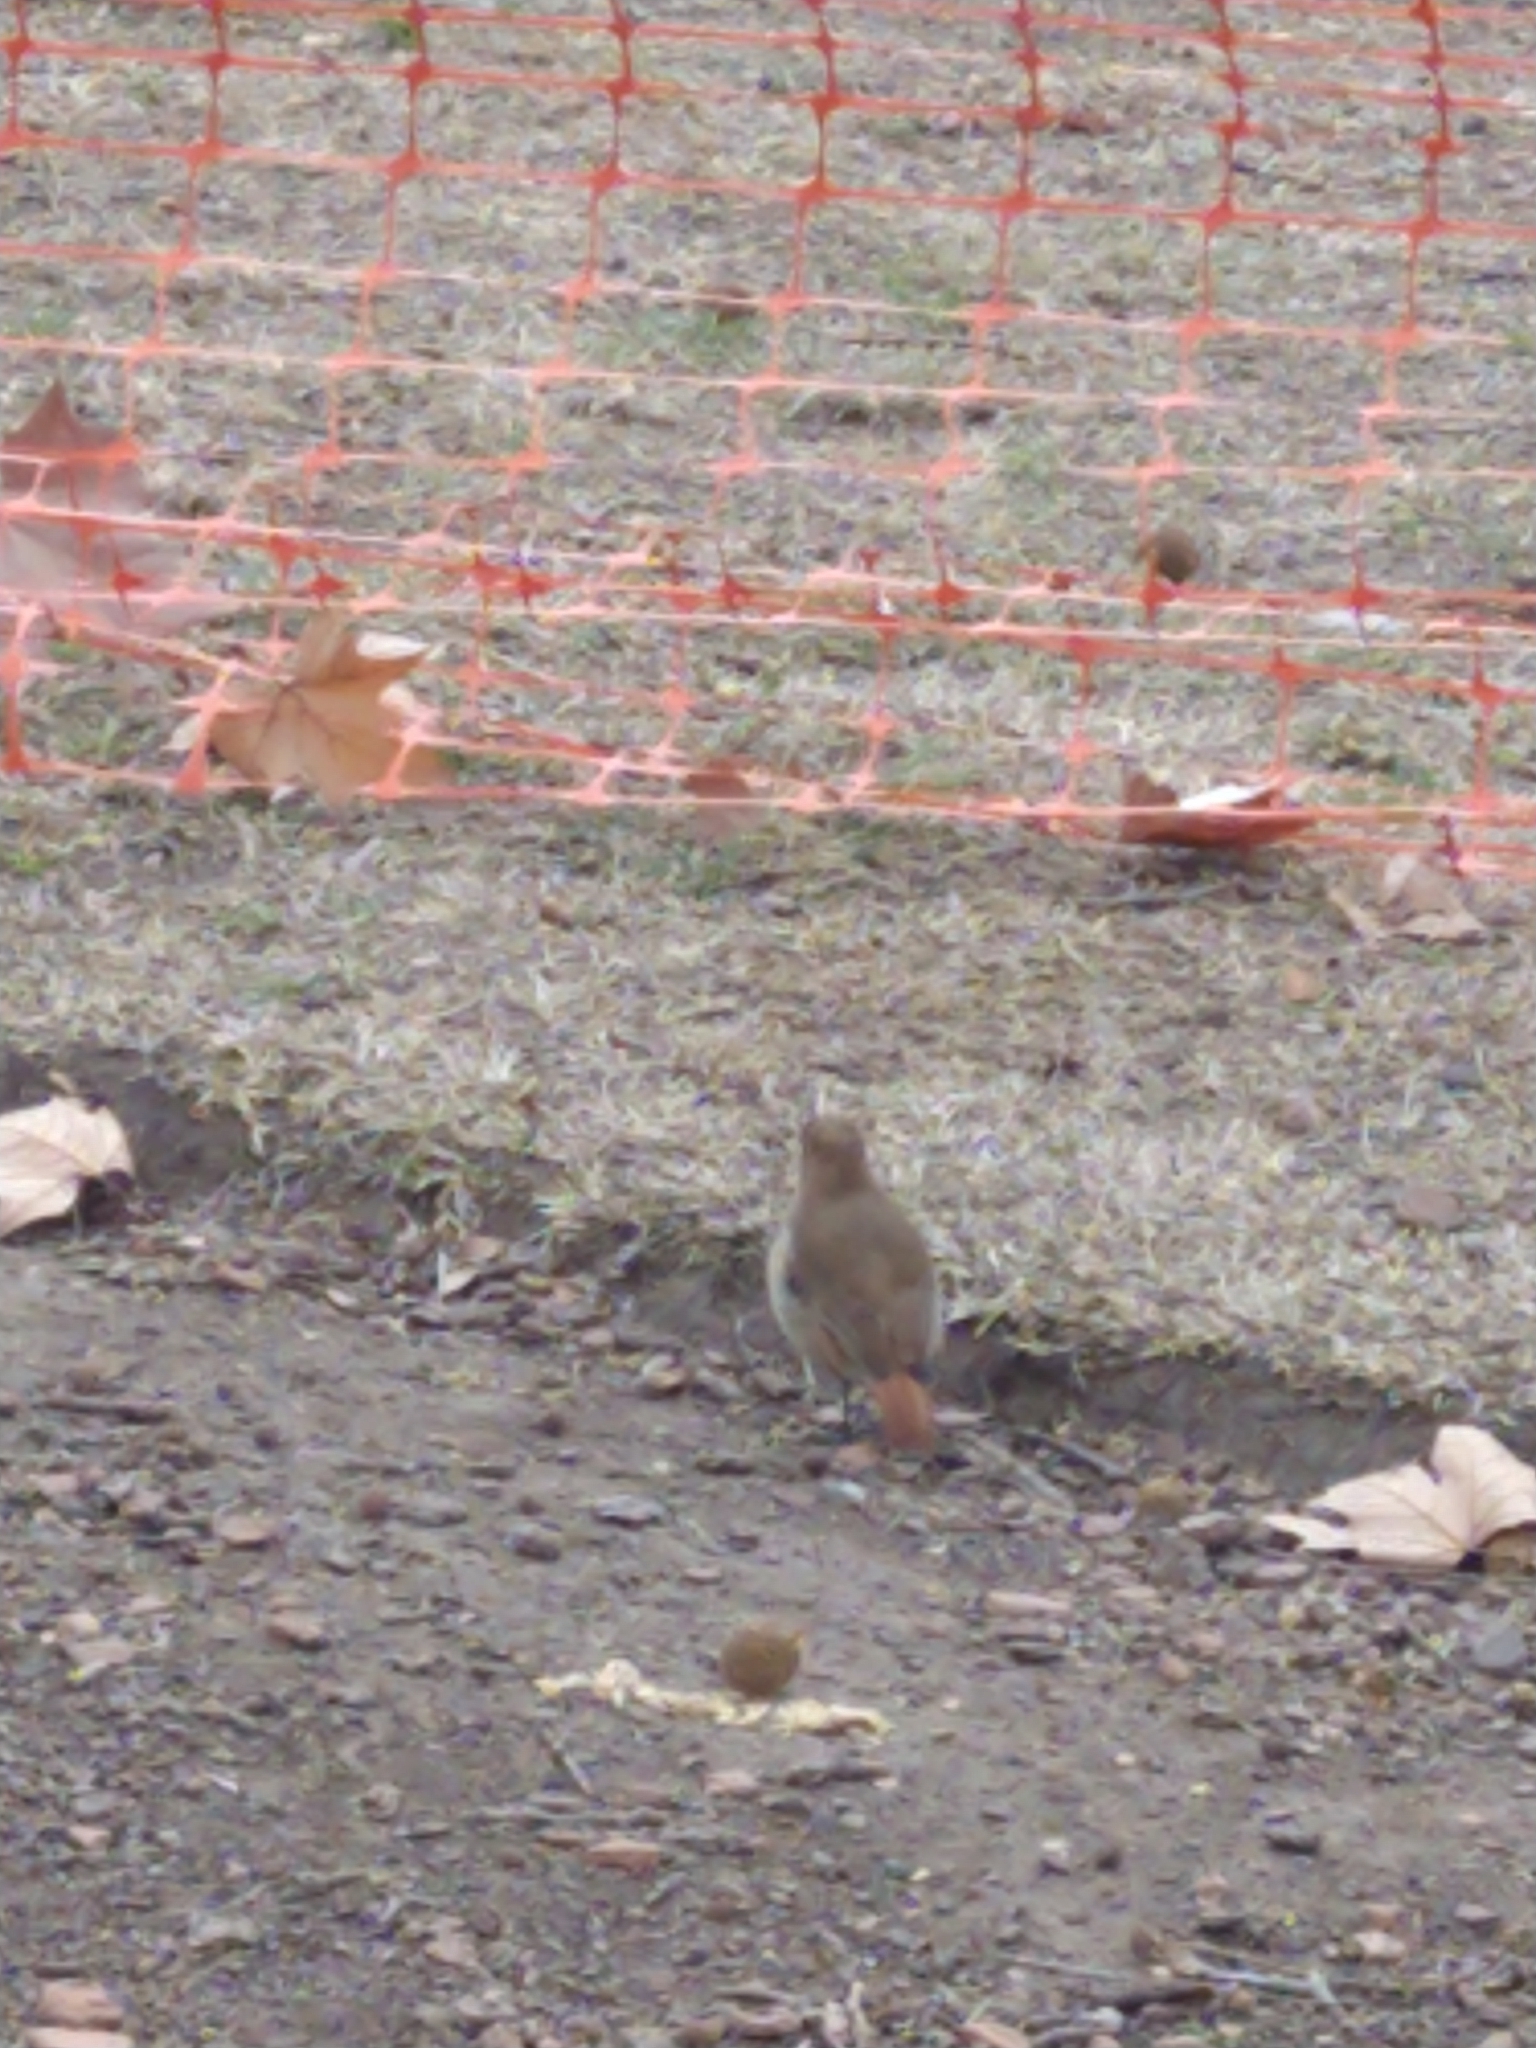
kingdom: Animalia
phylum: Chordata
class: Aves
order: Passeriformes
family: Furnariidae
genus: Furnarius
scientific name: Furnarius rufus
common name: Rufous hornero
